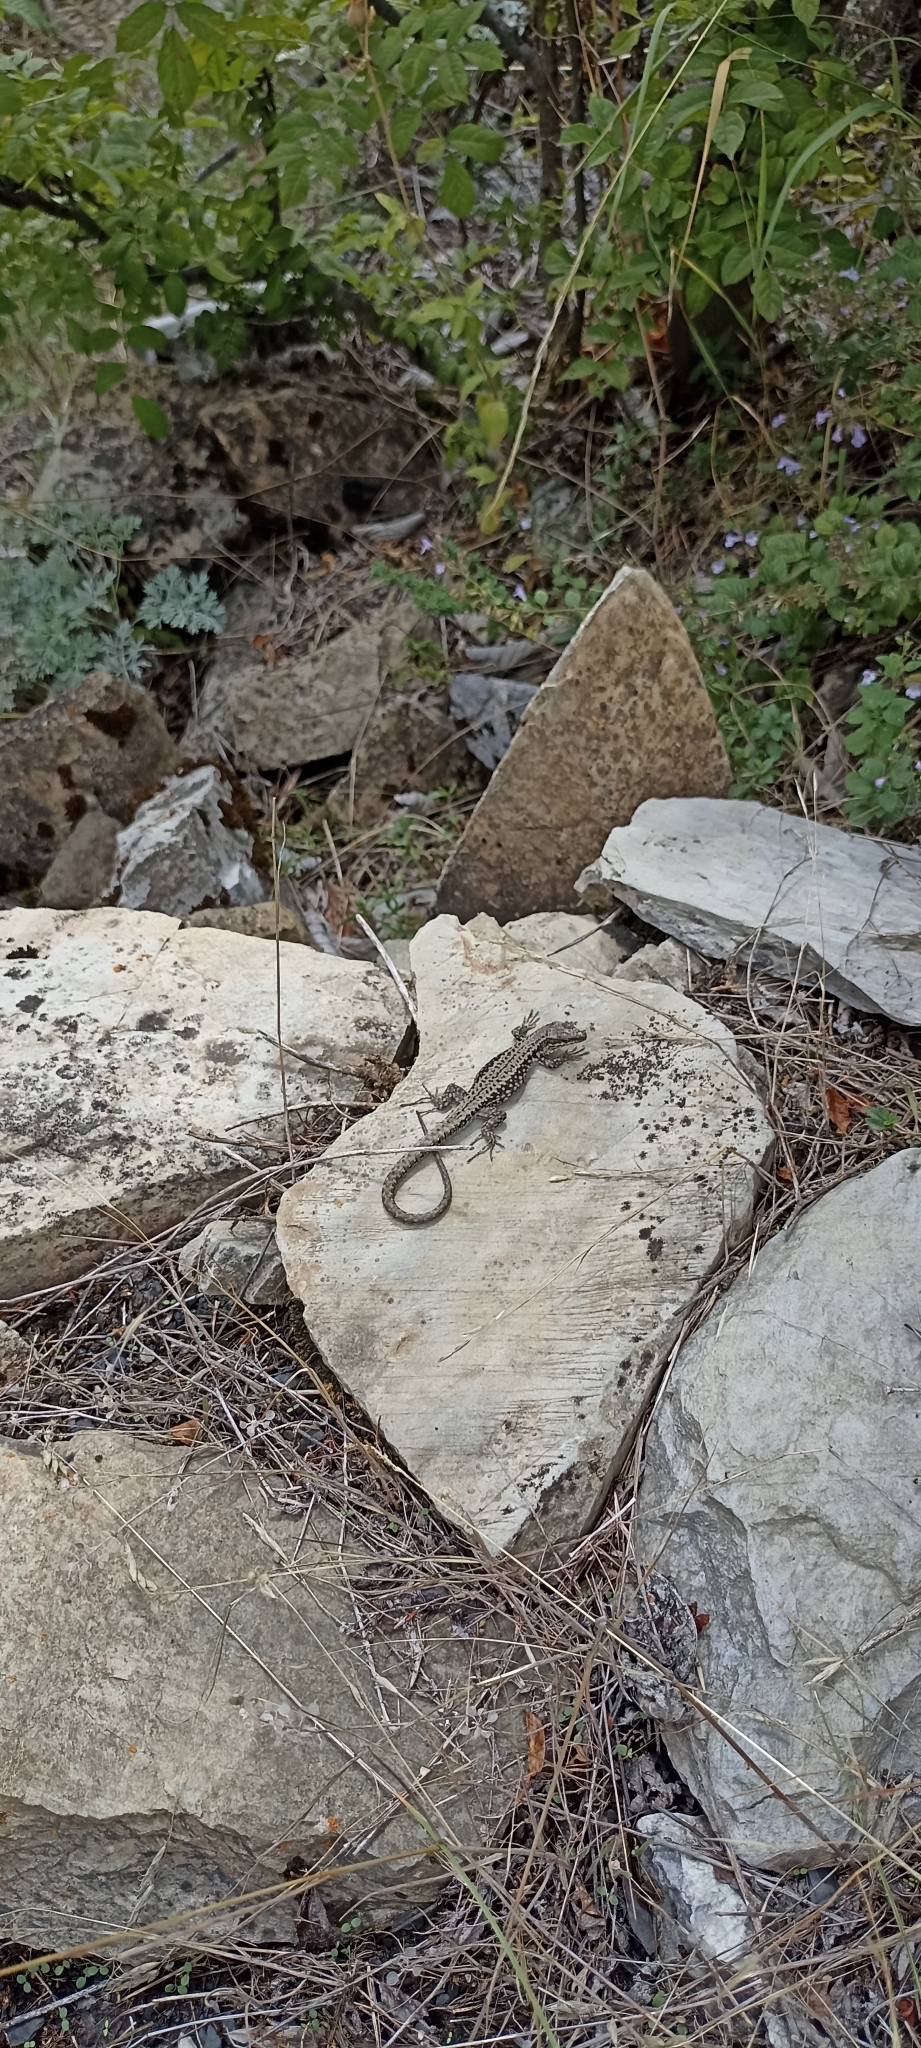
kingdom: Animalia
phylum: Chordata
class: Squamata
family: Lacertidae
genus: Podarcis
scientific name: Podarcis muralis
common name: Common wall lizard
